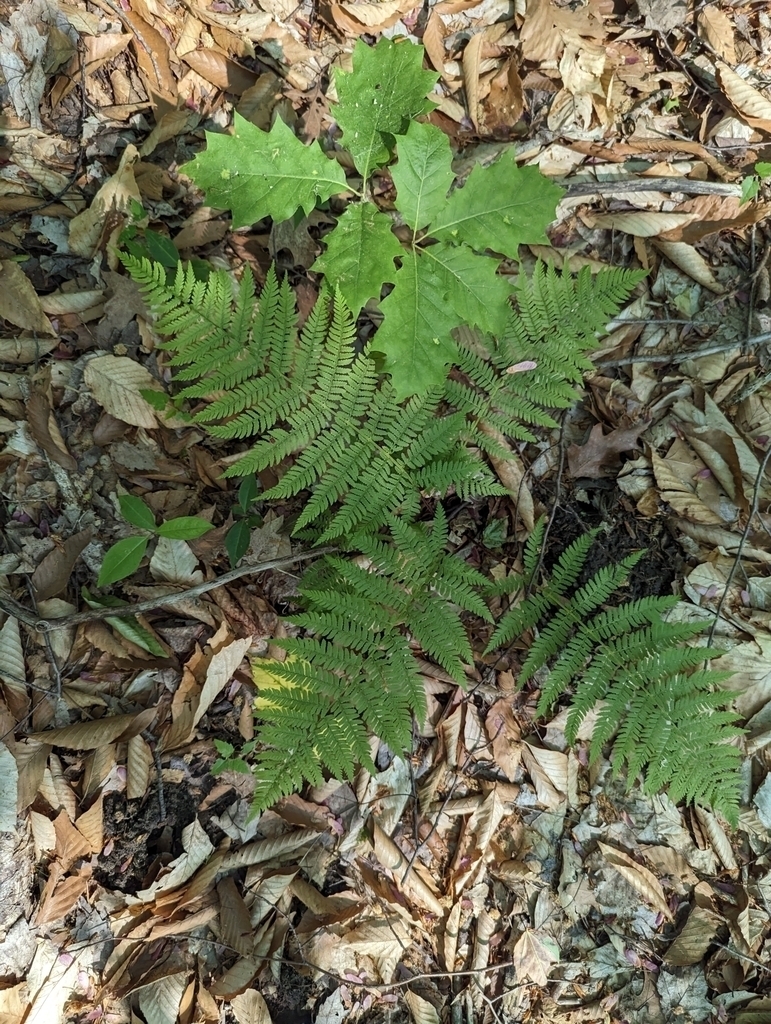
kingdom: Plantae
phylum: Tracheophyta
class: Polypodiopsida
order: Polypodiales
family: Athyriaceae
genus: Athyrium
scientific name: Athyrium angustum
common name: Northern lady fern
